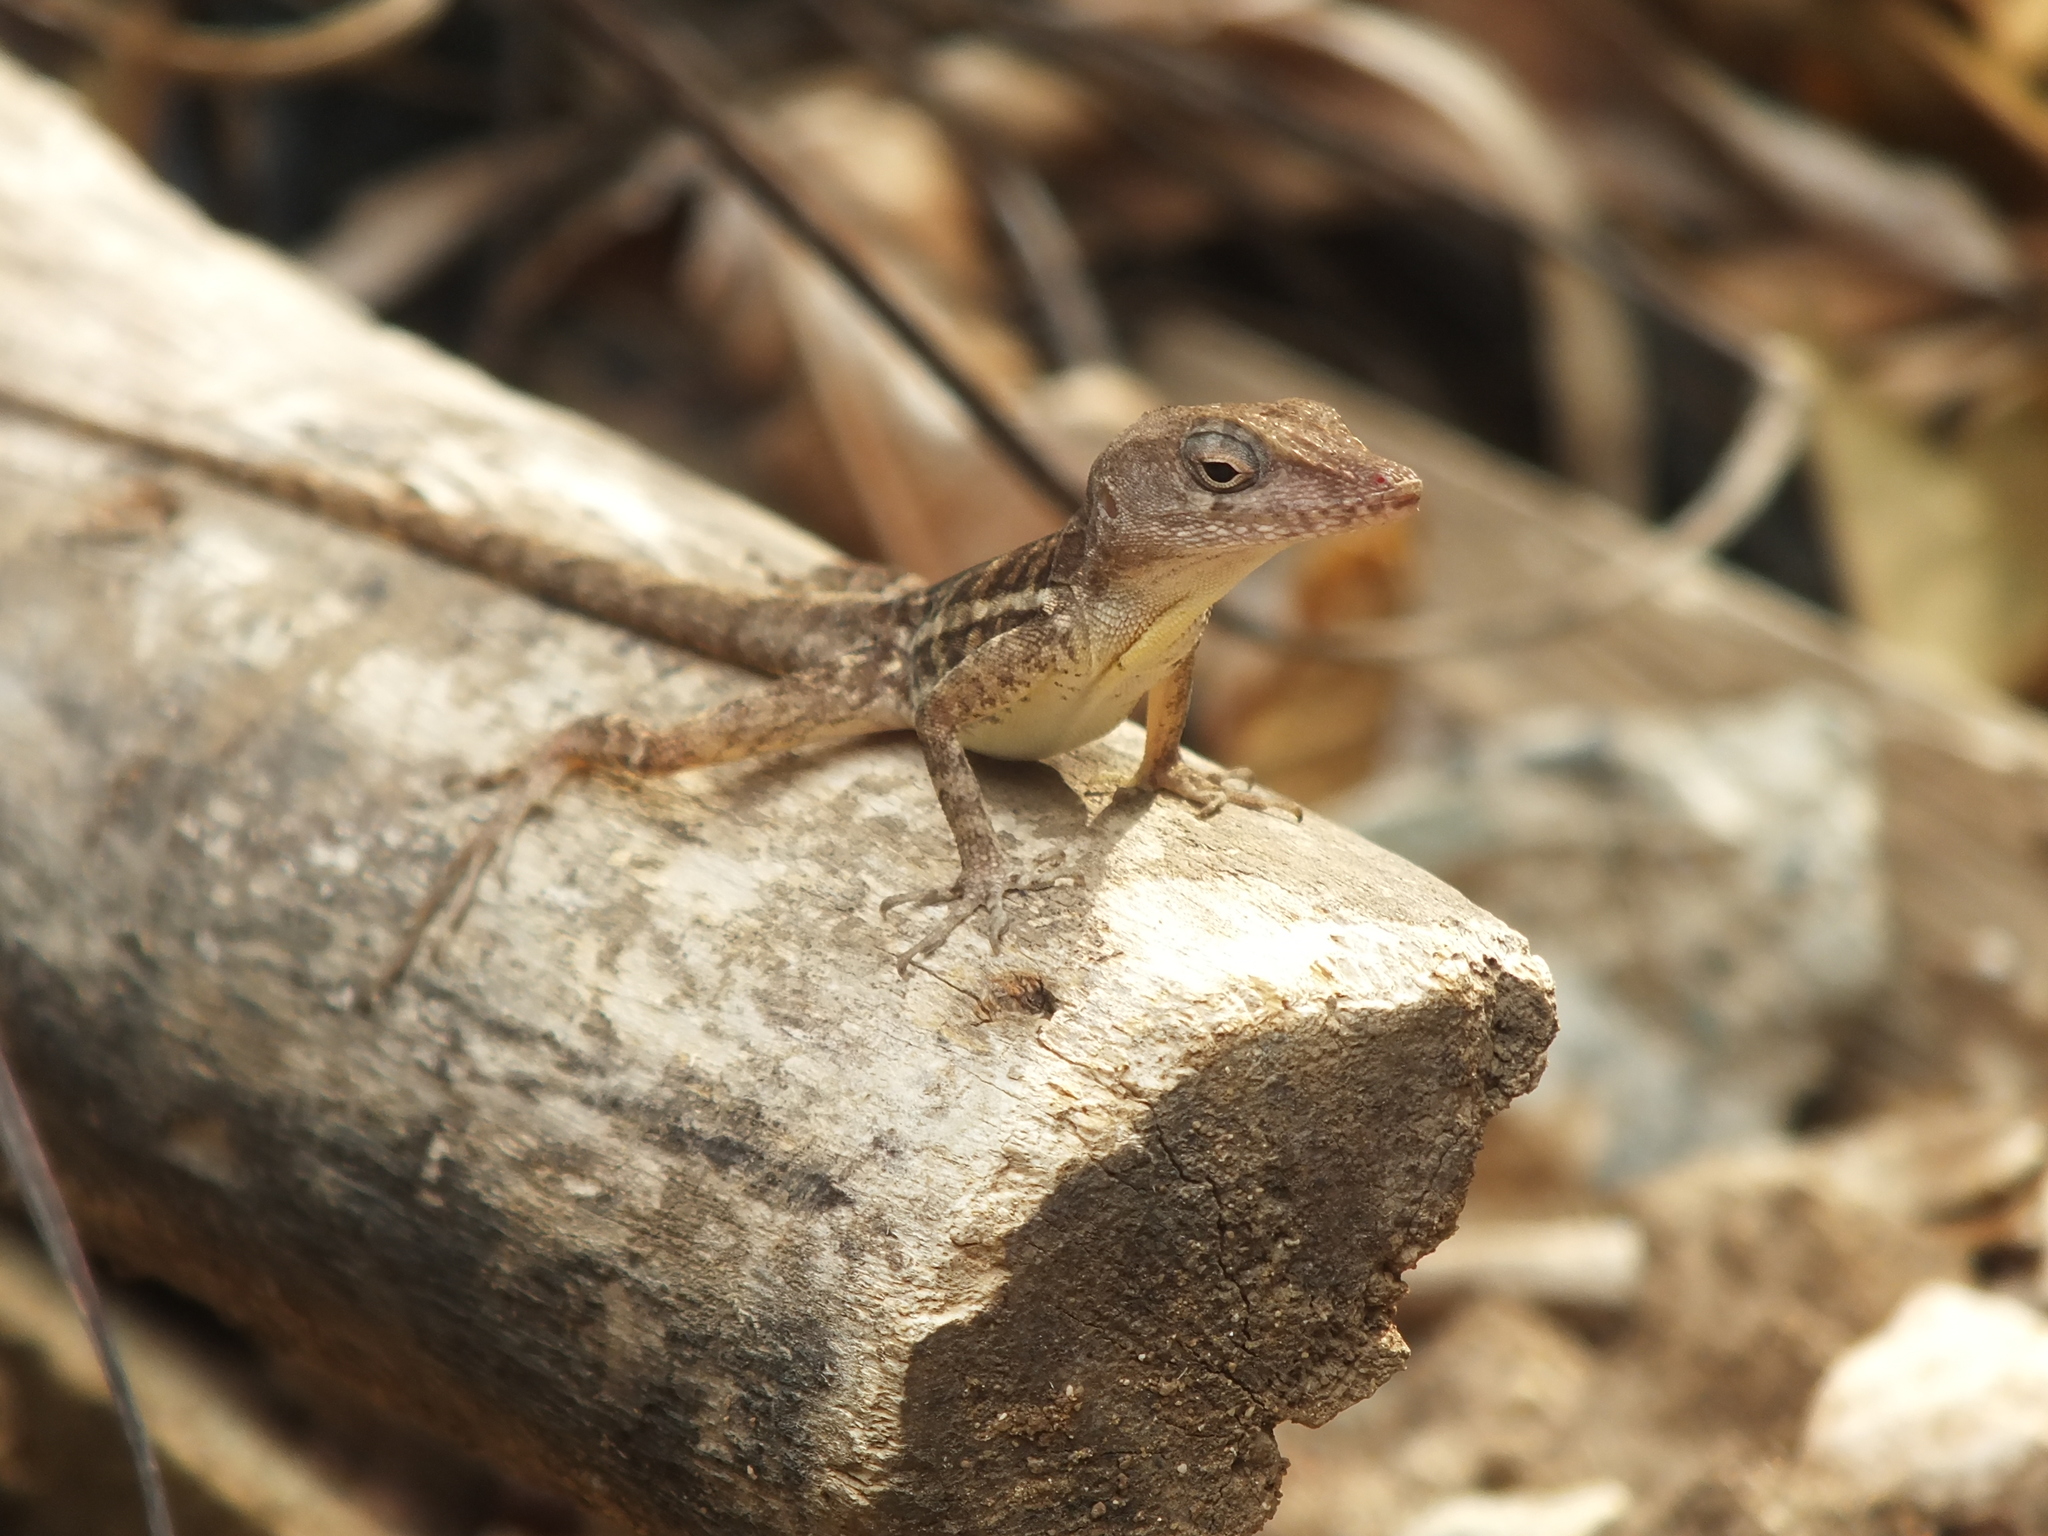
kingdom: Animalia
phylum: Chordata
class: Squamata
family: Dactyloidae
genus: Anolis
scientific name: Anolis lineatopus
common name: Stripefoot anole
